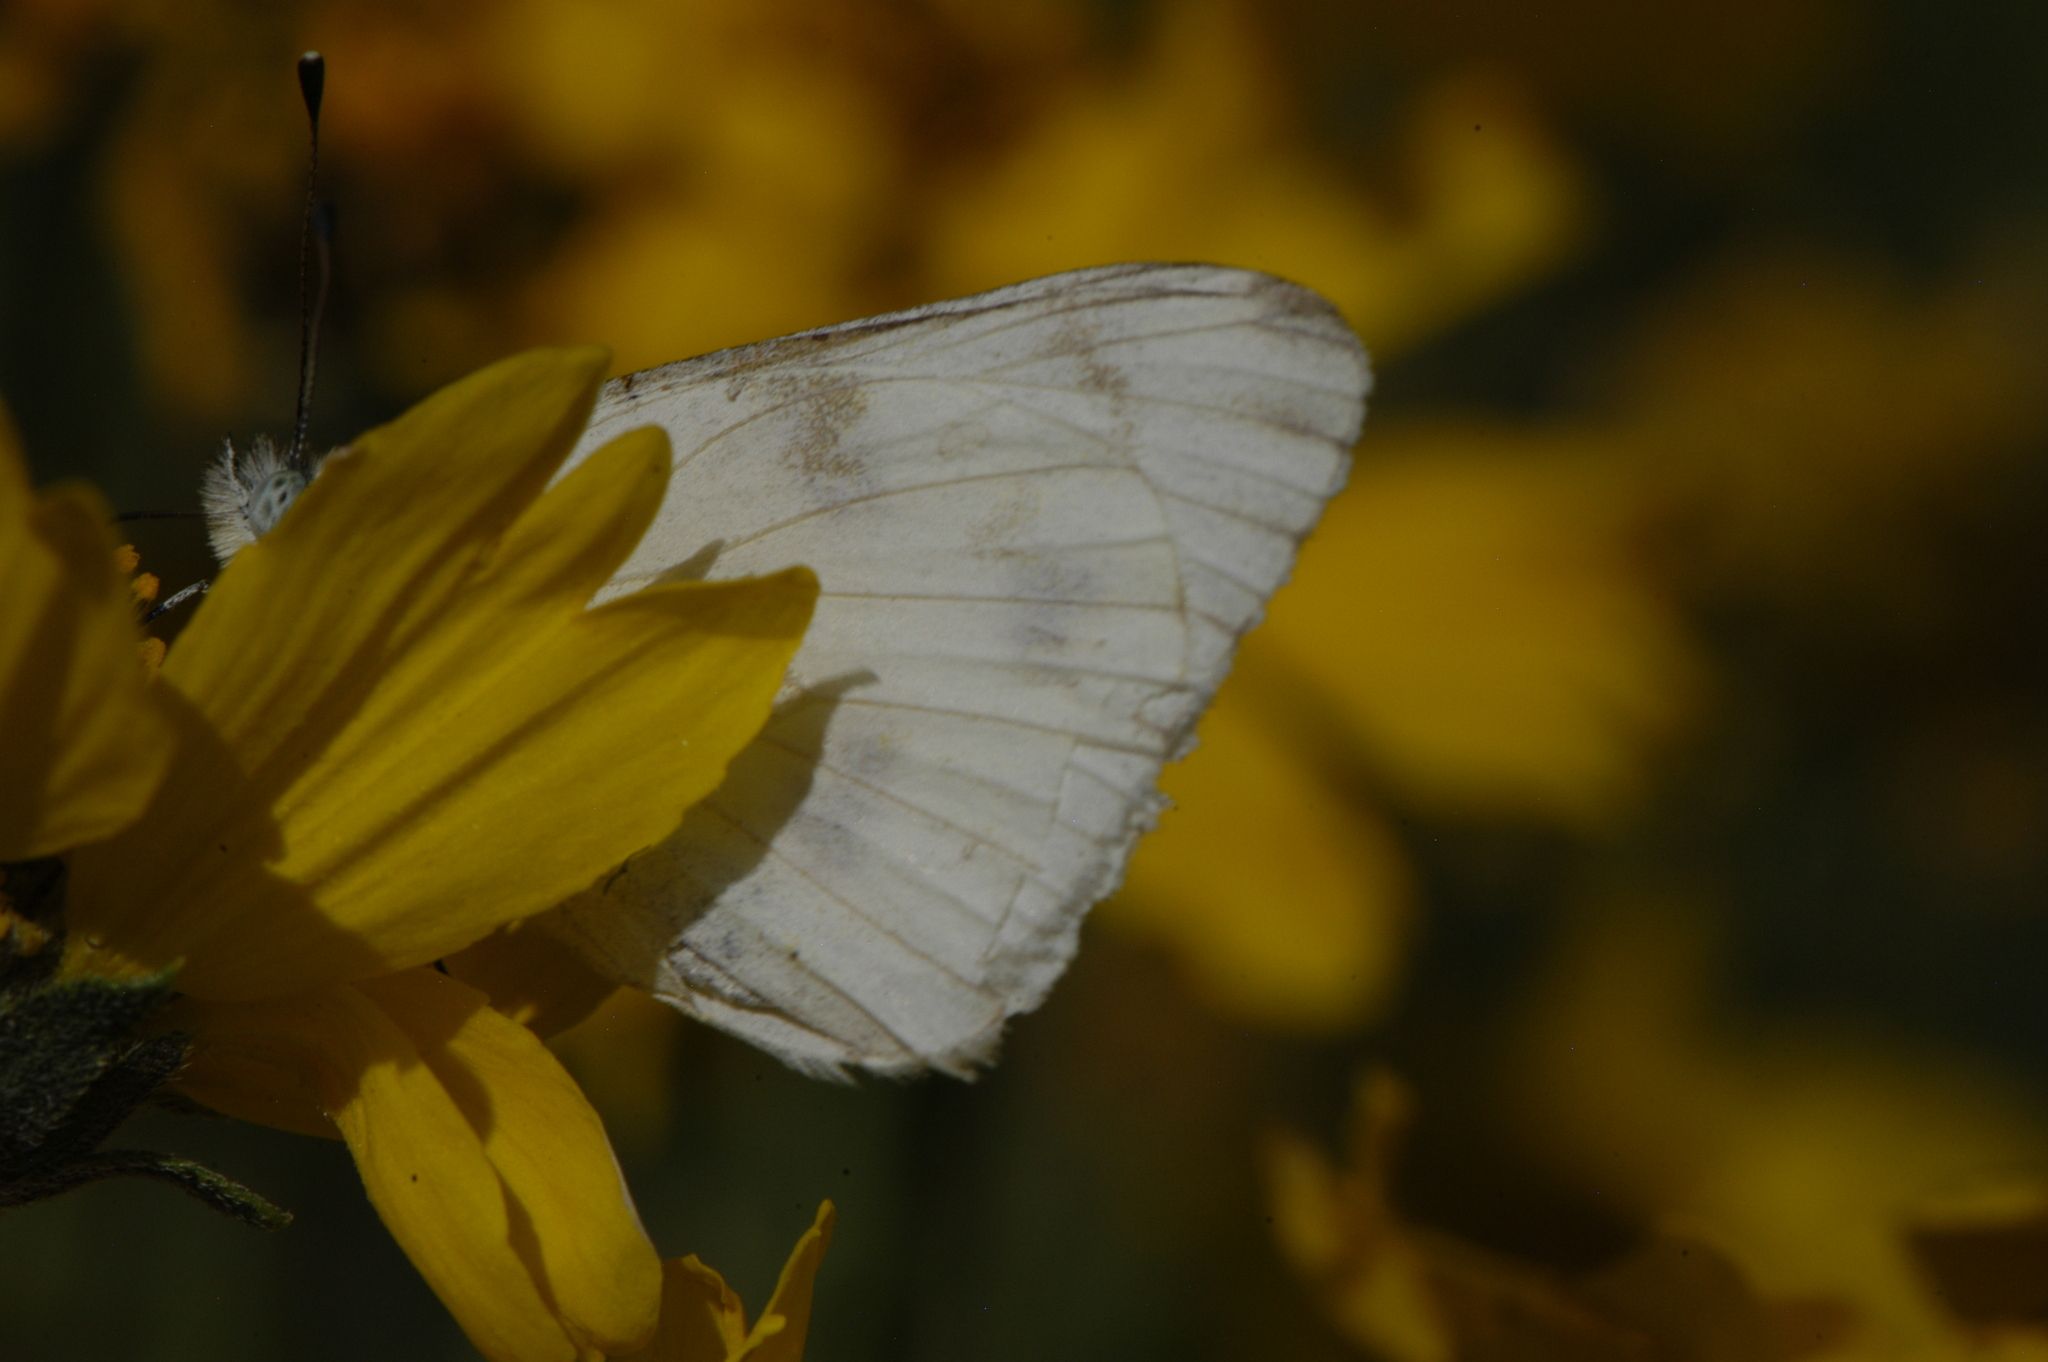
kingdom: Animalia
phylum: Arthropoda
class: Insecta
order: Lepidoptera
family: Pieridae
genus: Pontia
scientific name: Pontia protodice
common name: Checkered white
